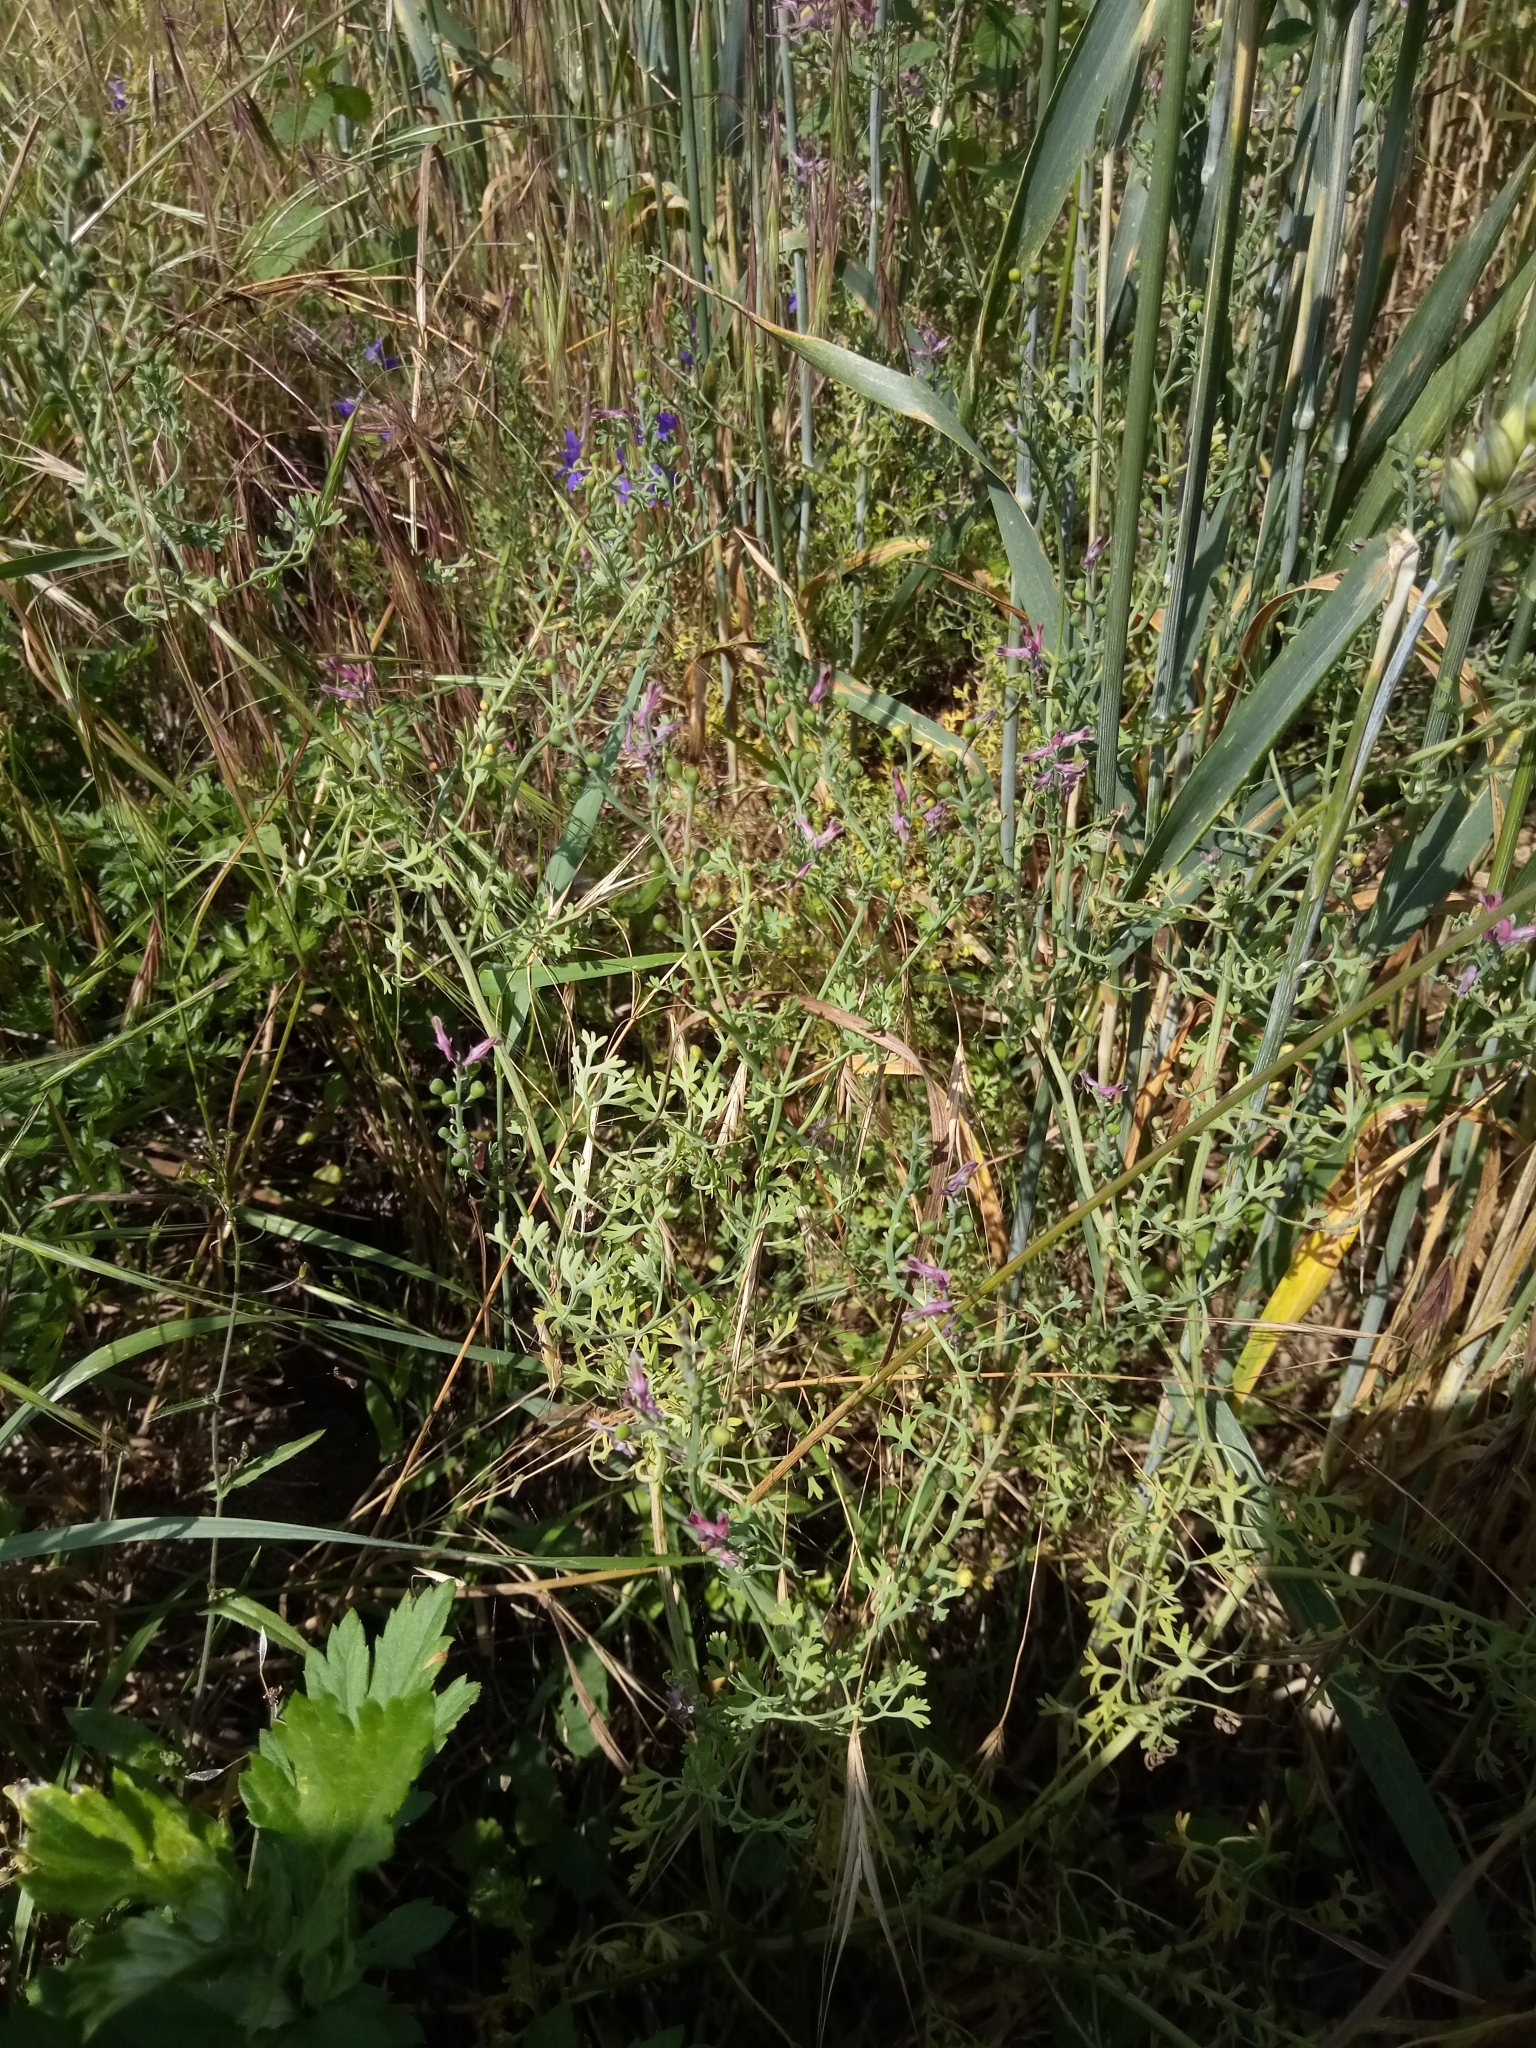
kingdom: Plantae
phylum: Tracheophyta
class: Magnoliopsida
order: Ranunculales
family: Papaveraceae
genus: Fumaria
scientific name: Fumaria officinalis
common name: Common fumitory
